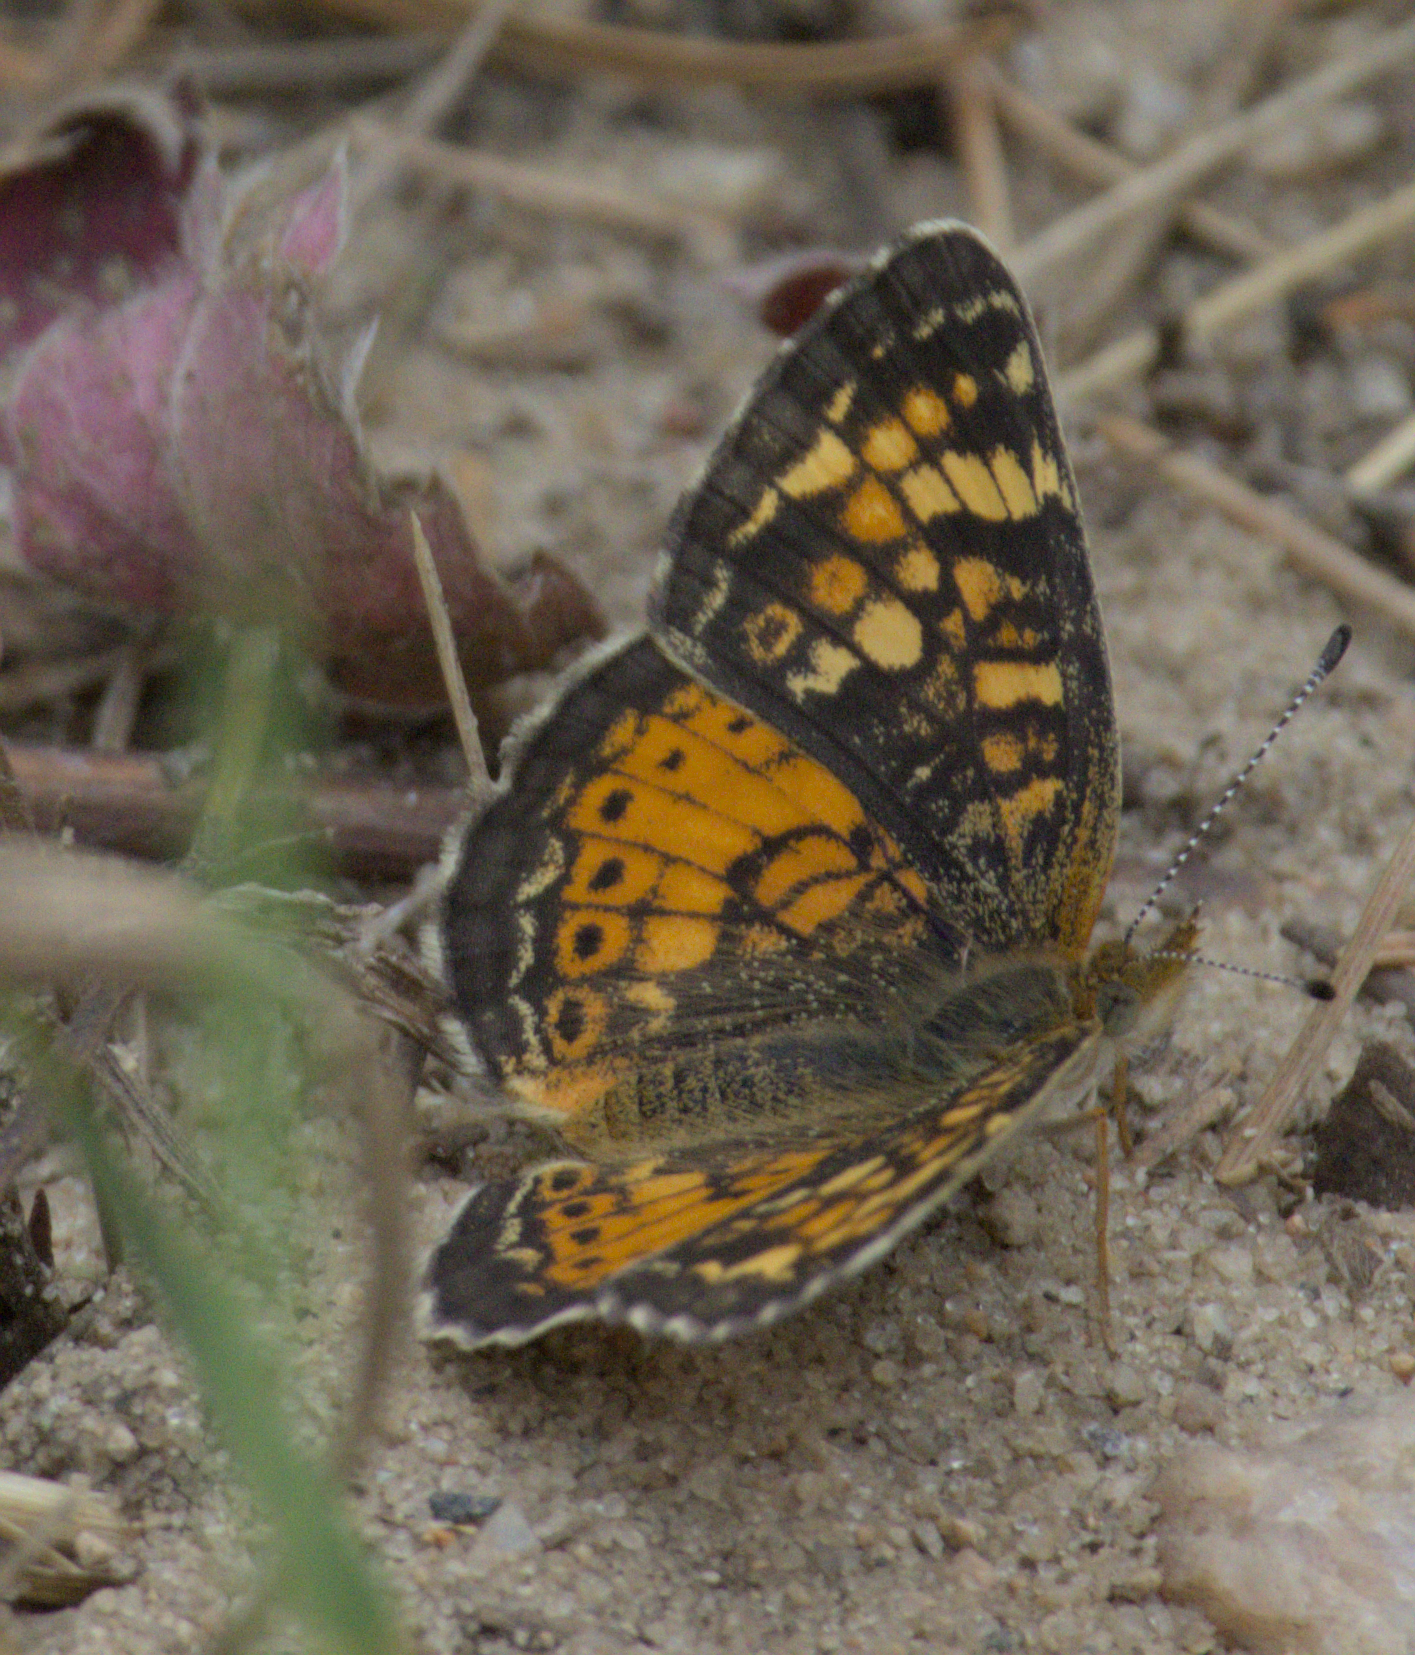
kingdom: Animalia
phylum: Arthropoda
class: Insecta
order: Lepidoptera
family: Nymphalidae
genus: Phyciodes
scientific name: Phyciodes tharos
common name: Pearl crescent
